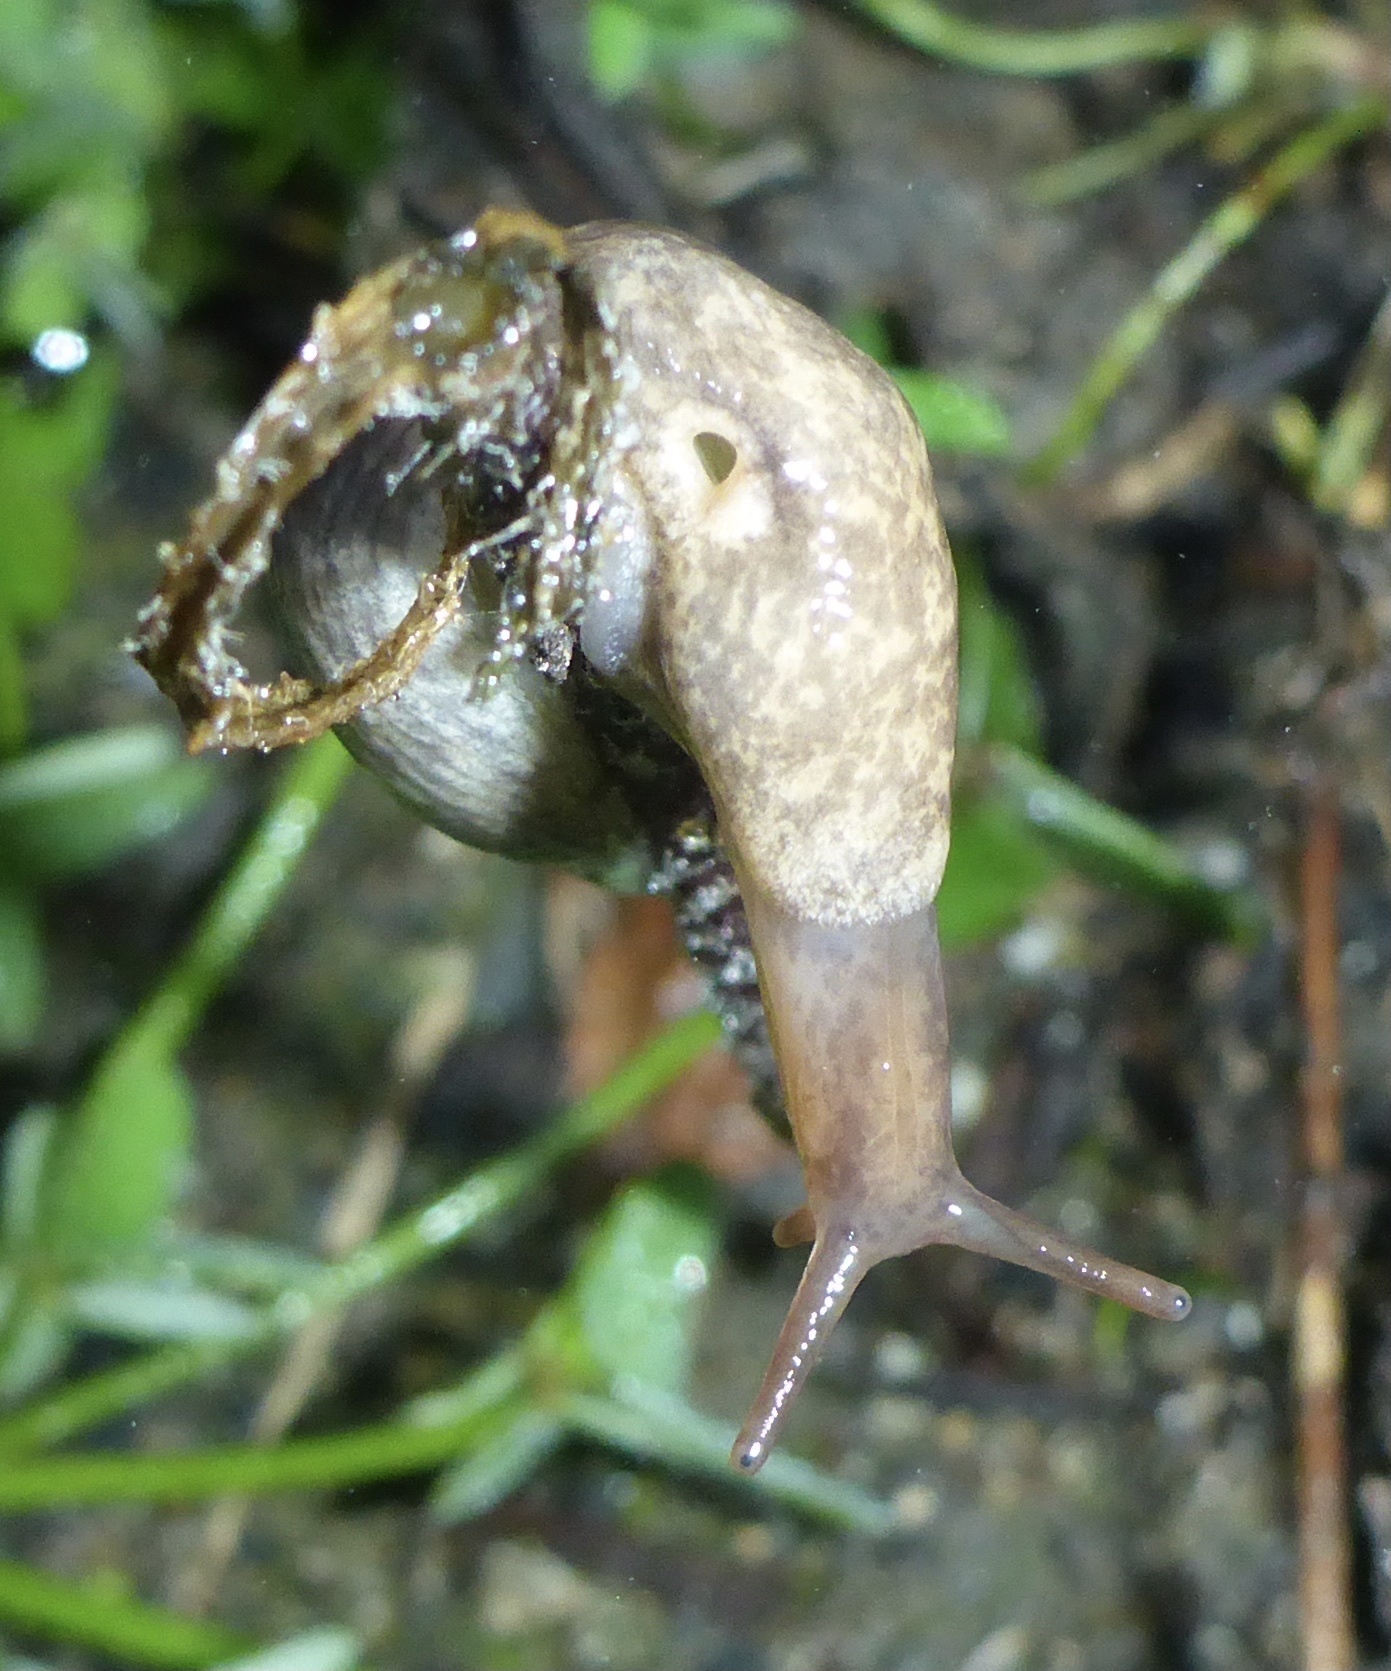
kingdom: Animalia
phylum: Mollusca
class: Gastropoda
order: Stylommatophora
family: Agriolimacidae
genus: Deroceras
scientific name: Deroceras reticulatum
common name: Gray field slug
